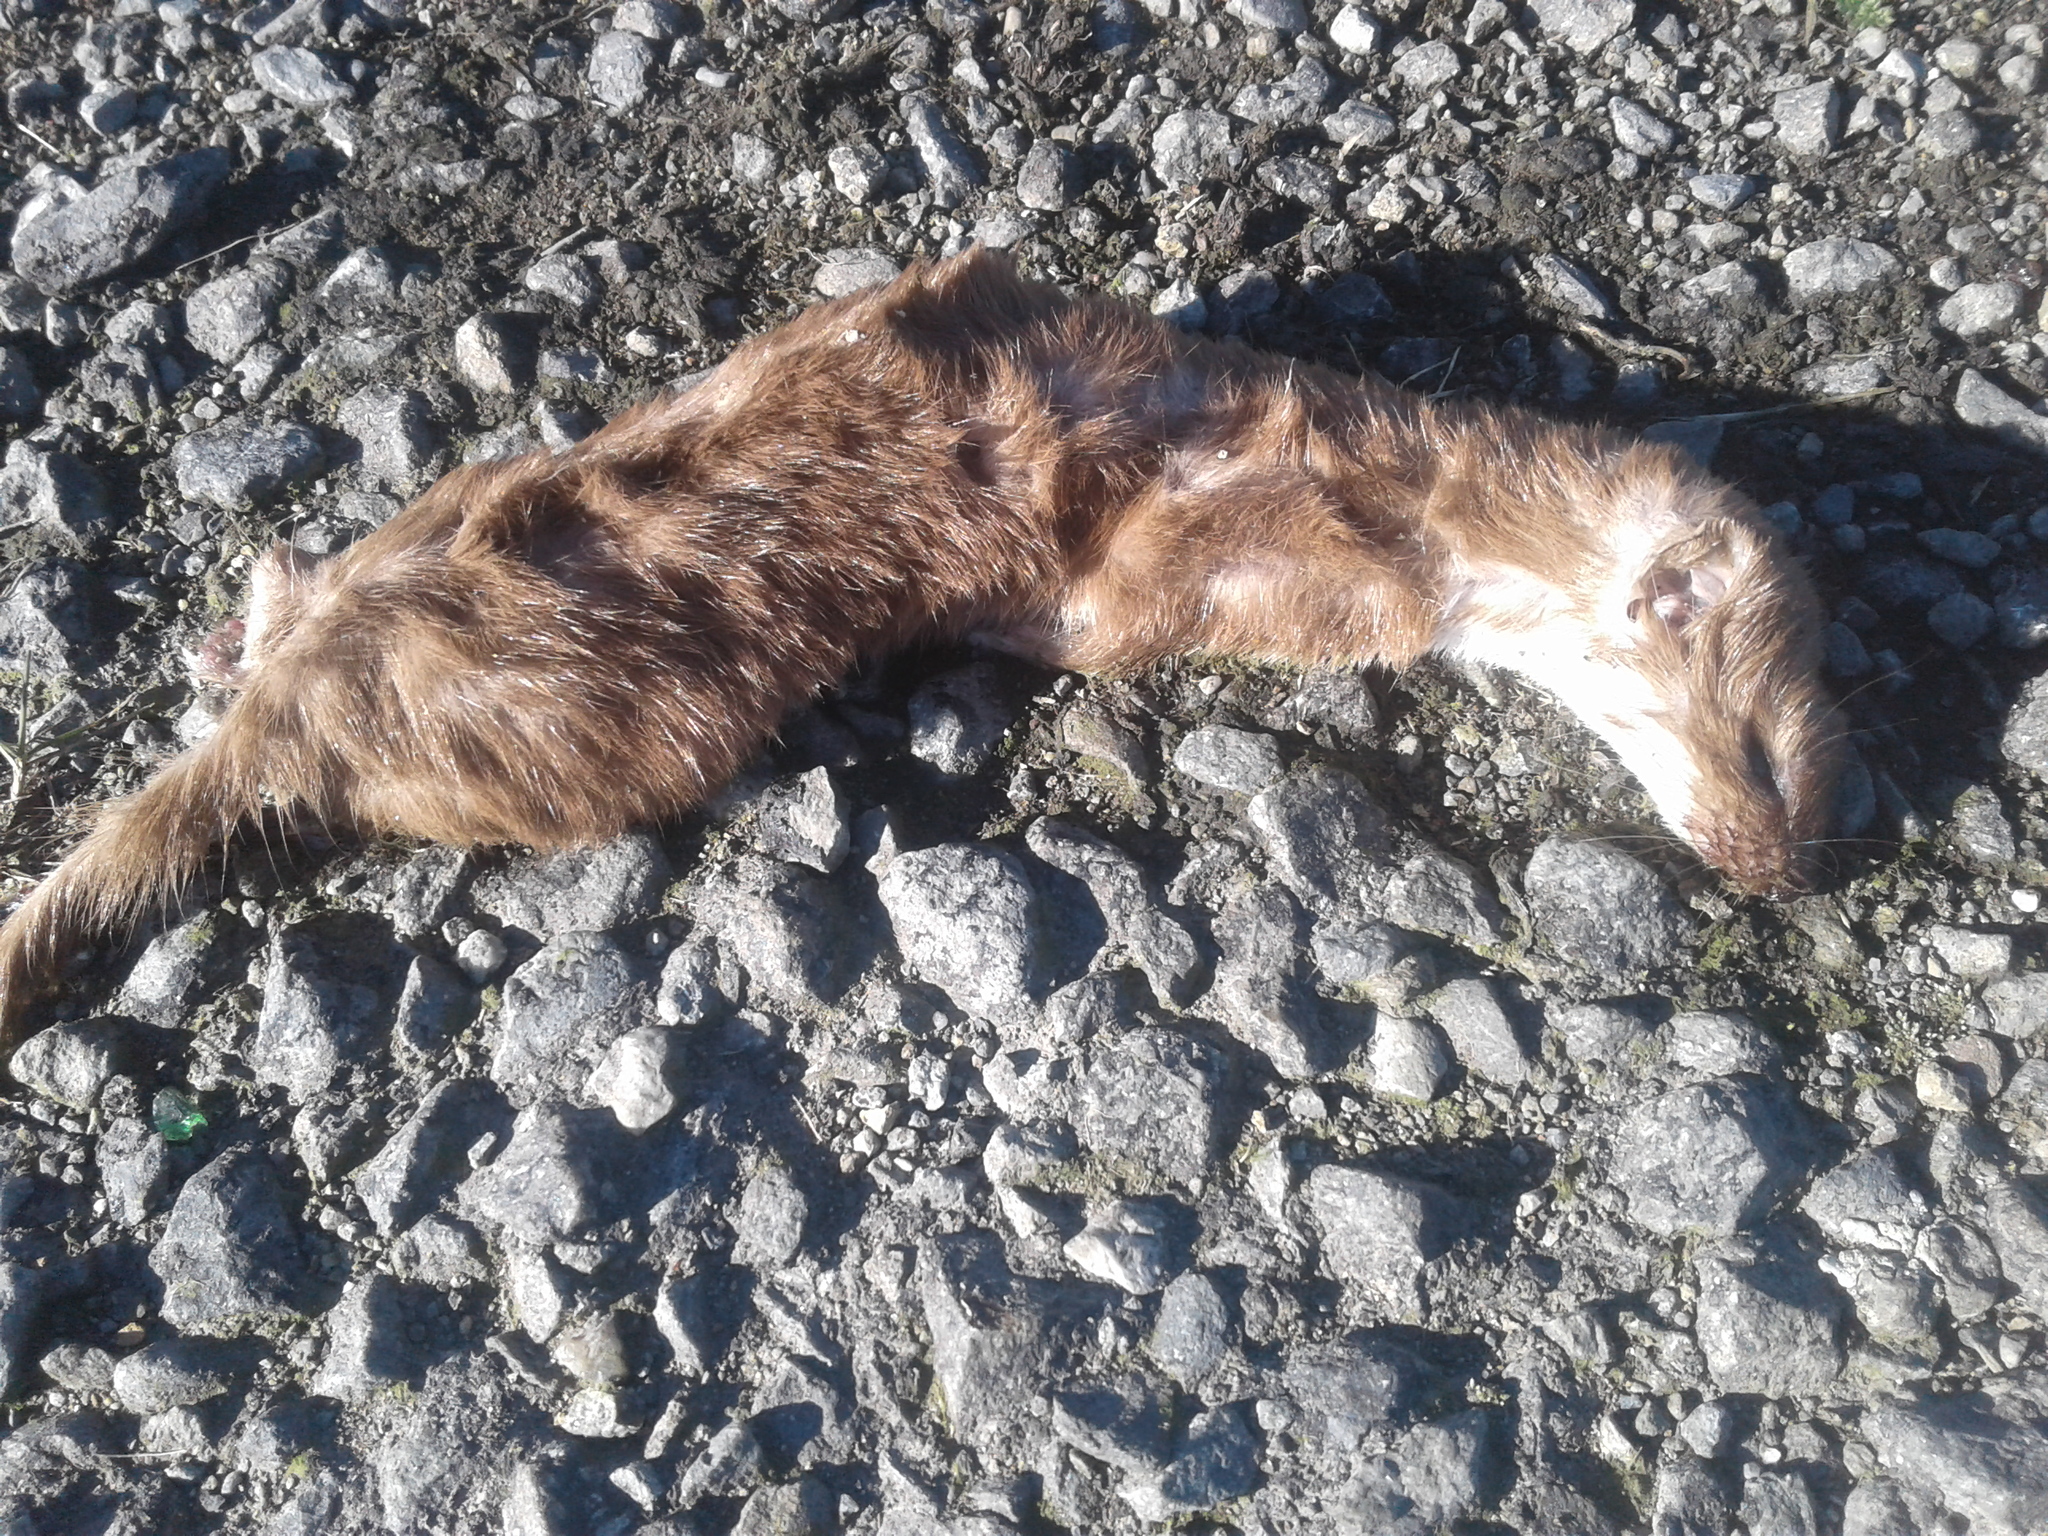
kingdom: Animalia
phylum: Chordata
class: Mammalia
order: Carnivora
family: Mustelidae
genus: Mustela
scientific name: Mustela nivalis
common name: Least weasel
